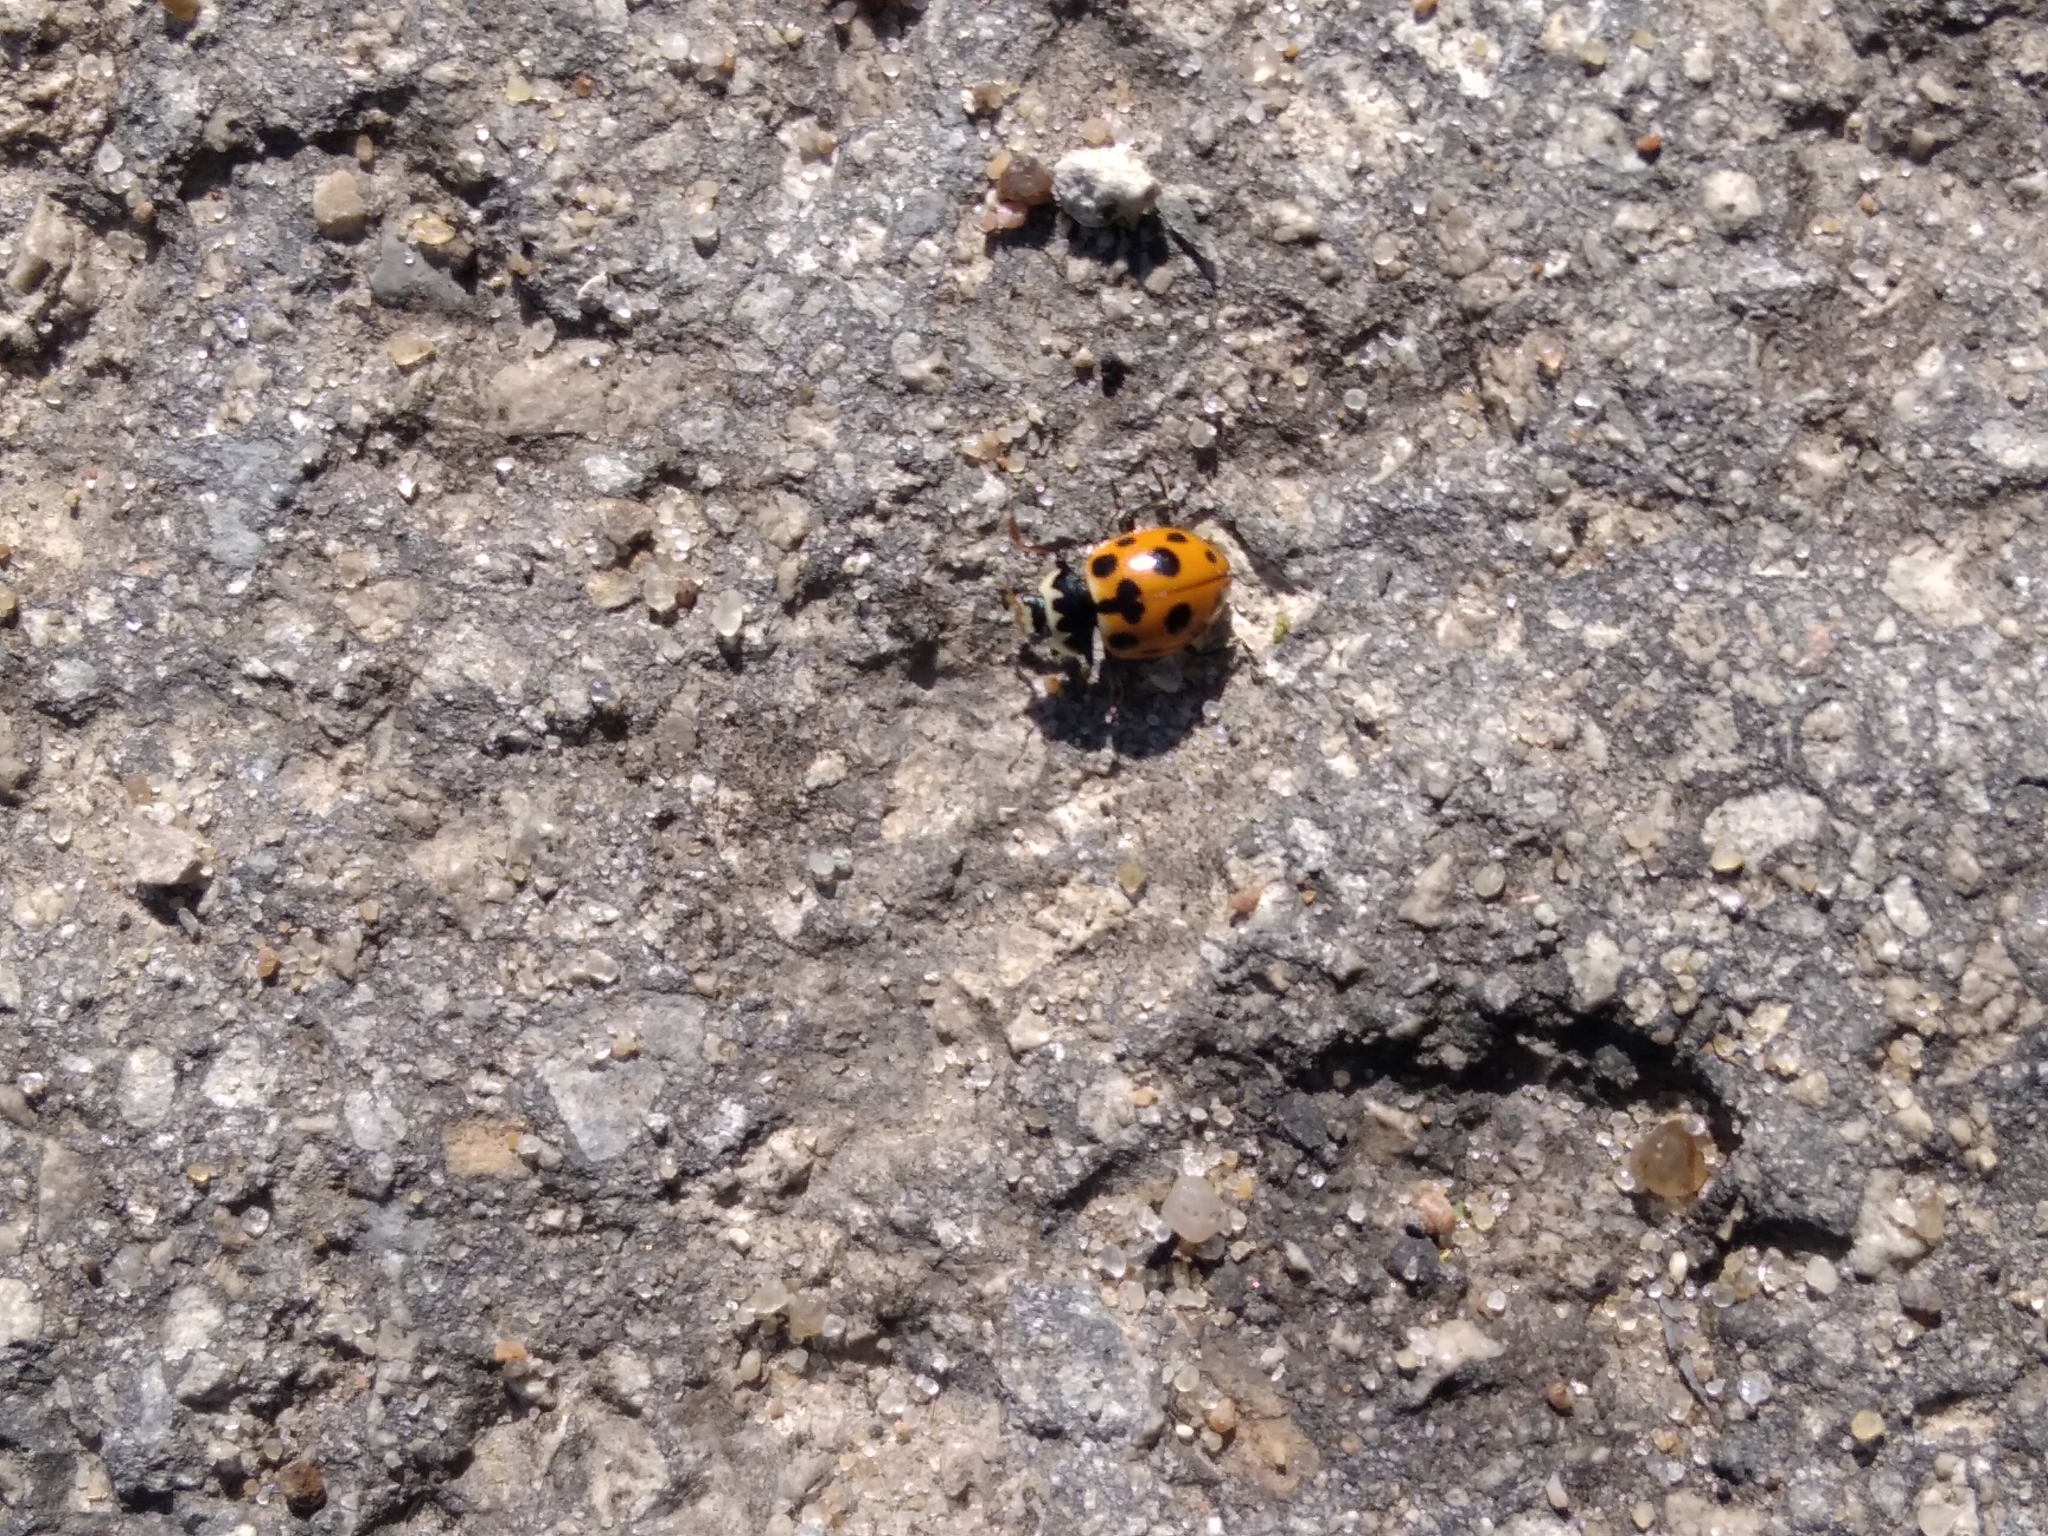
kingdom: Animalia
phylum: Arthropoda
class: Insecta
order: Coleoptera
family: Coccinellidae
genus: Ceratomegilla
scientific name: Ceratomegilla notata
